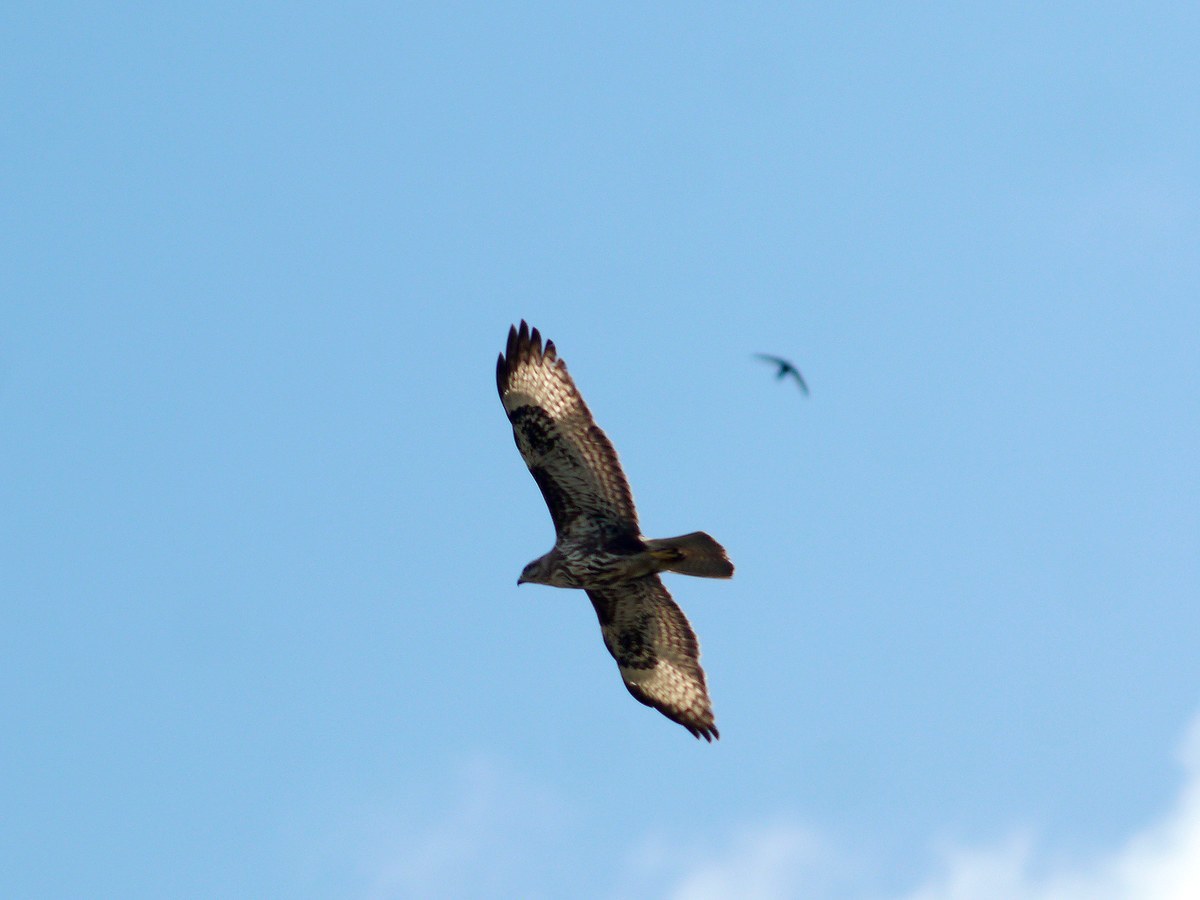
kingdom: Animalia
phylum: Chordata
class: Aves
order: Accipitriformes
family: Accipitridae
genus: Buteo
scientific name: Buteo buteo
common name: Common buzzard
